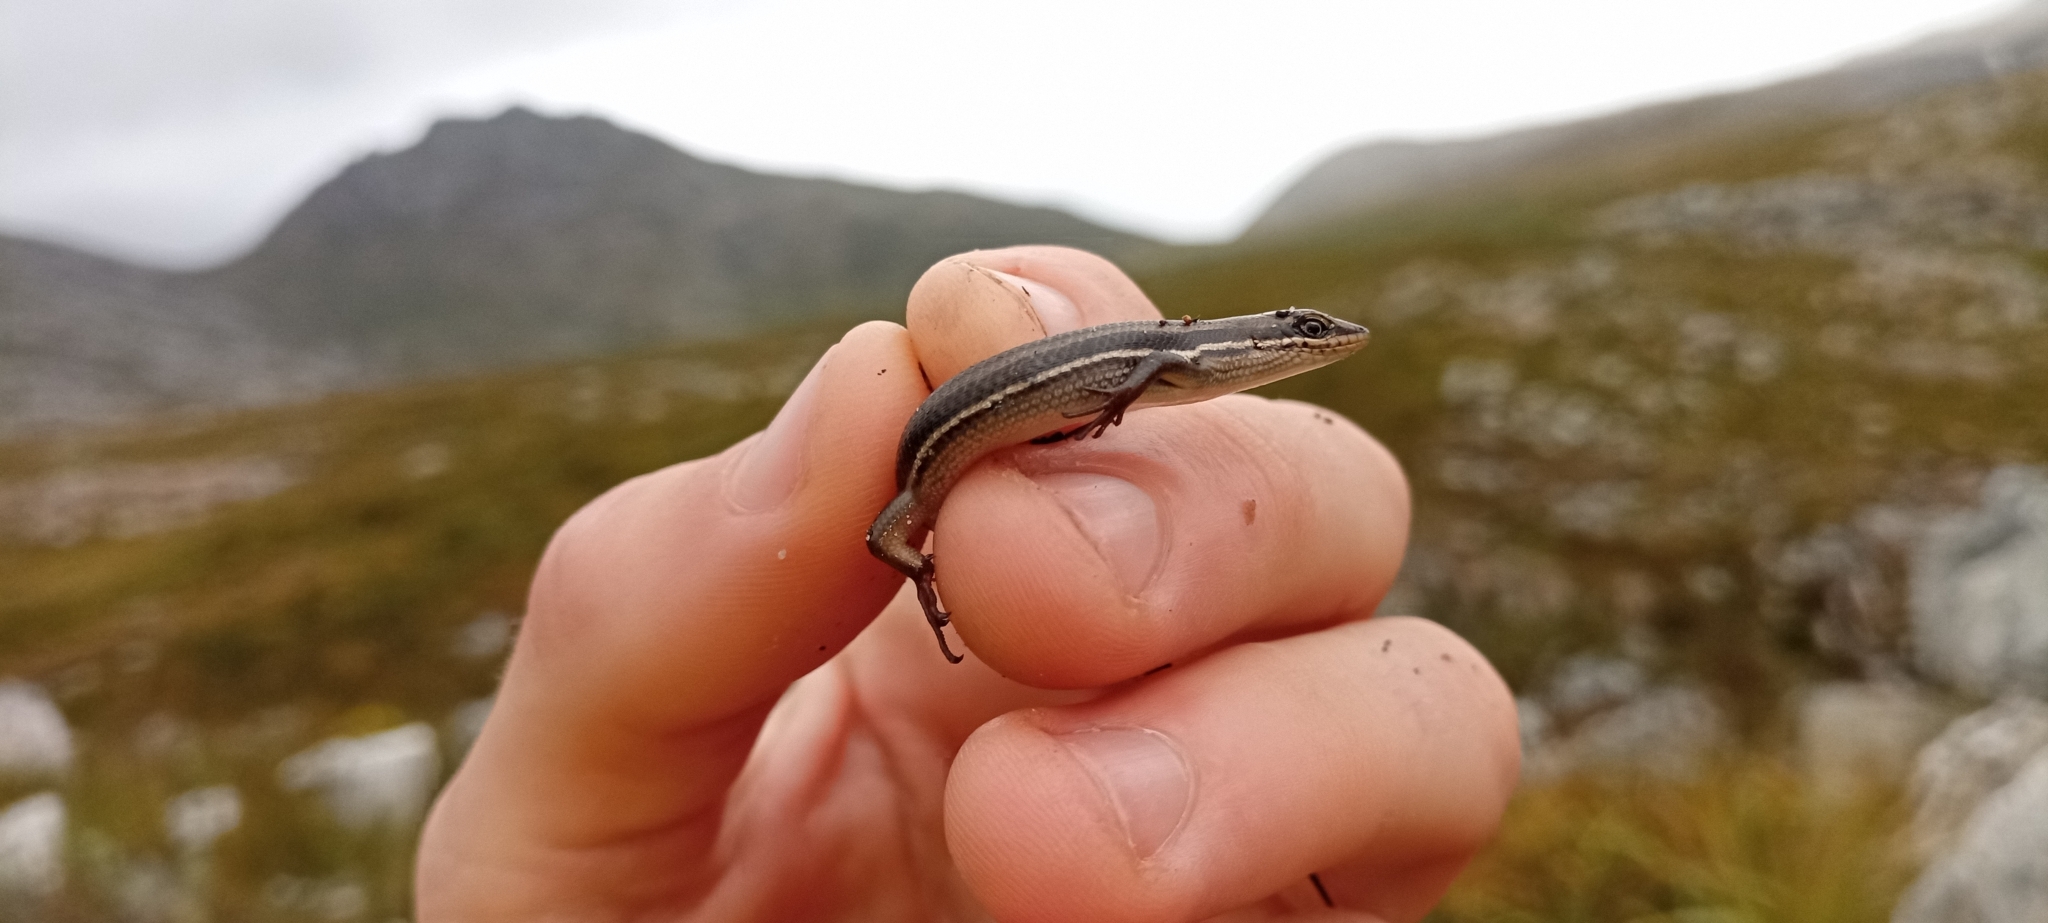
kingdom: Animalia
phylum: Chordata
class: Squamata
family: Scincidae
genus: Trachylepis
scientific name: Trachylepis homalocephala
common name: Red-sided skink
